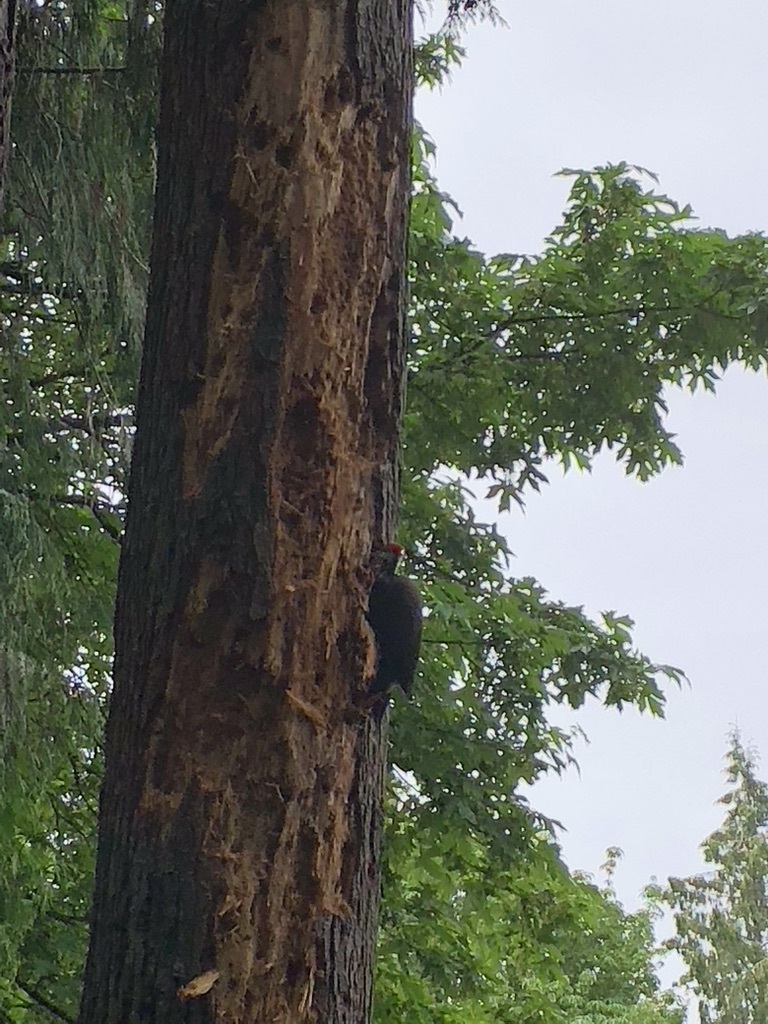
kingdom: Animalia
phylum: Chordata
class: Aves
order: Piciformes
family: Picidae
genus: Dryocopus
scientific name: Dryocopus pileatus
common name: Pileated woodpecker
